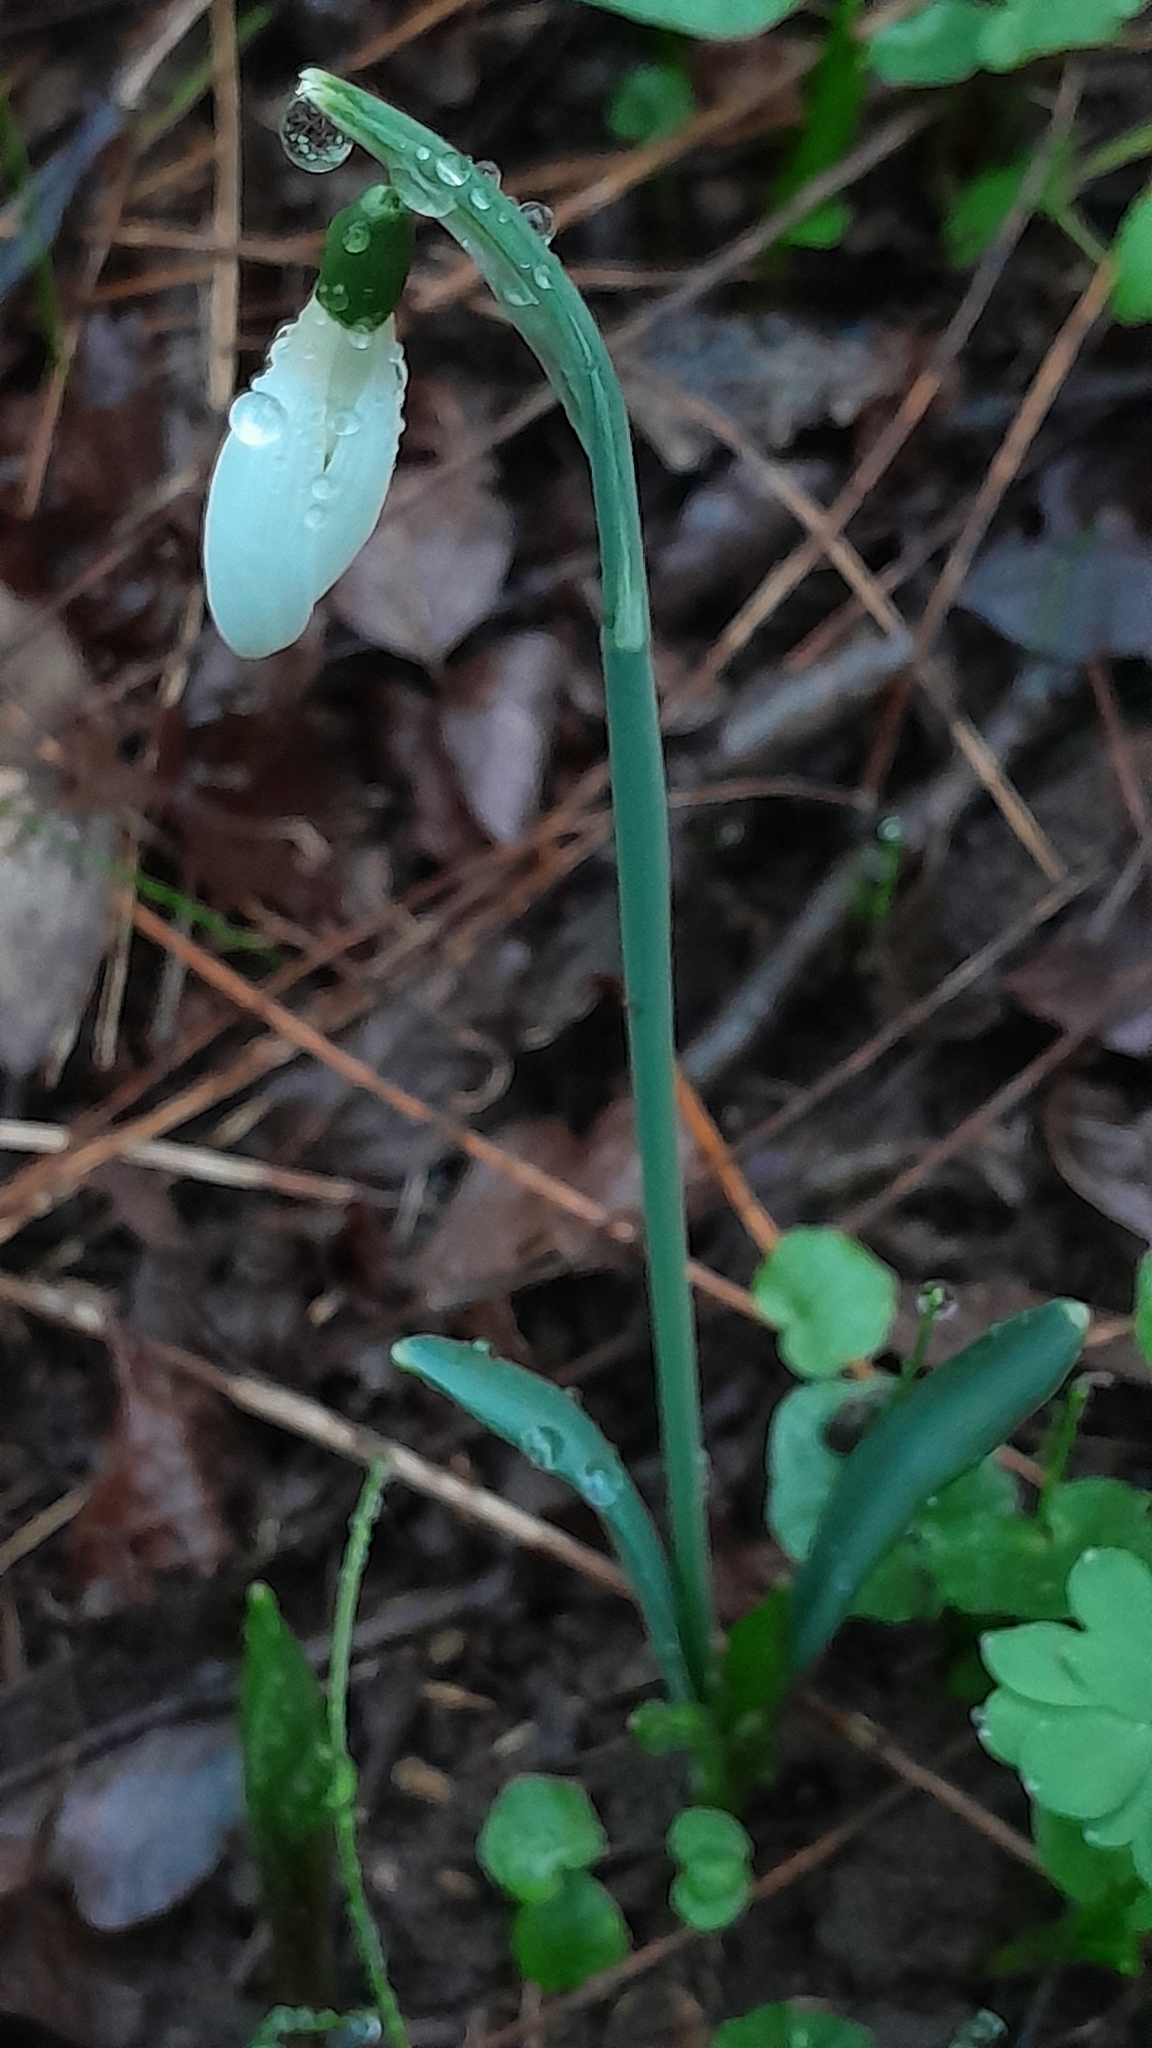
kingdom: Plantae
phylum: Tracheophyta
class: Liliopsida
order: Asparagales
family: Amaryllidaceae
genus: Galanthus
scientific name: Galanthus nivalis
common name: Snowdrop
